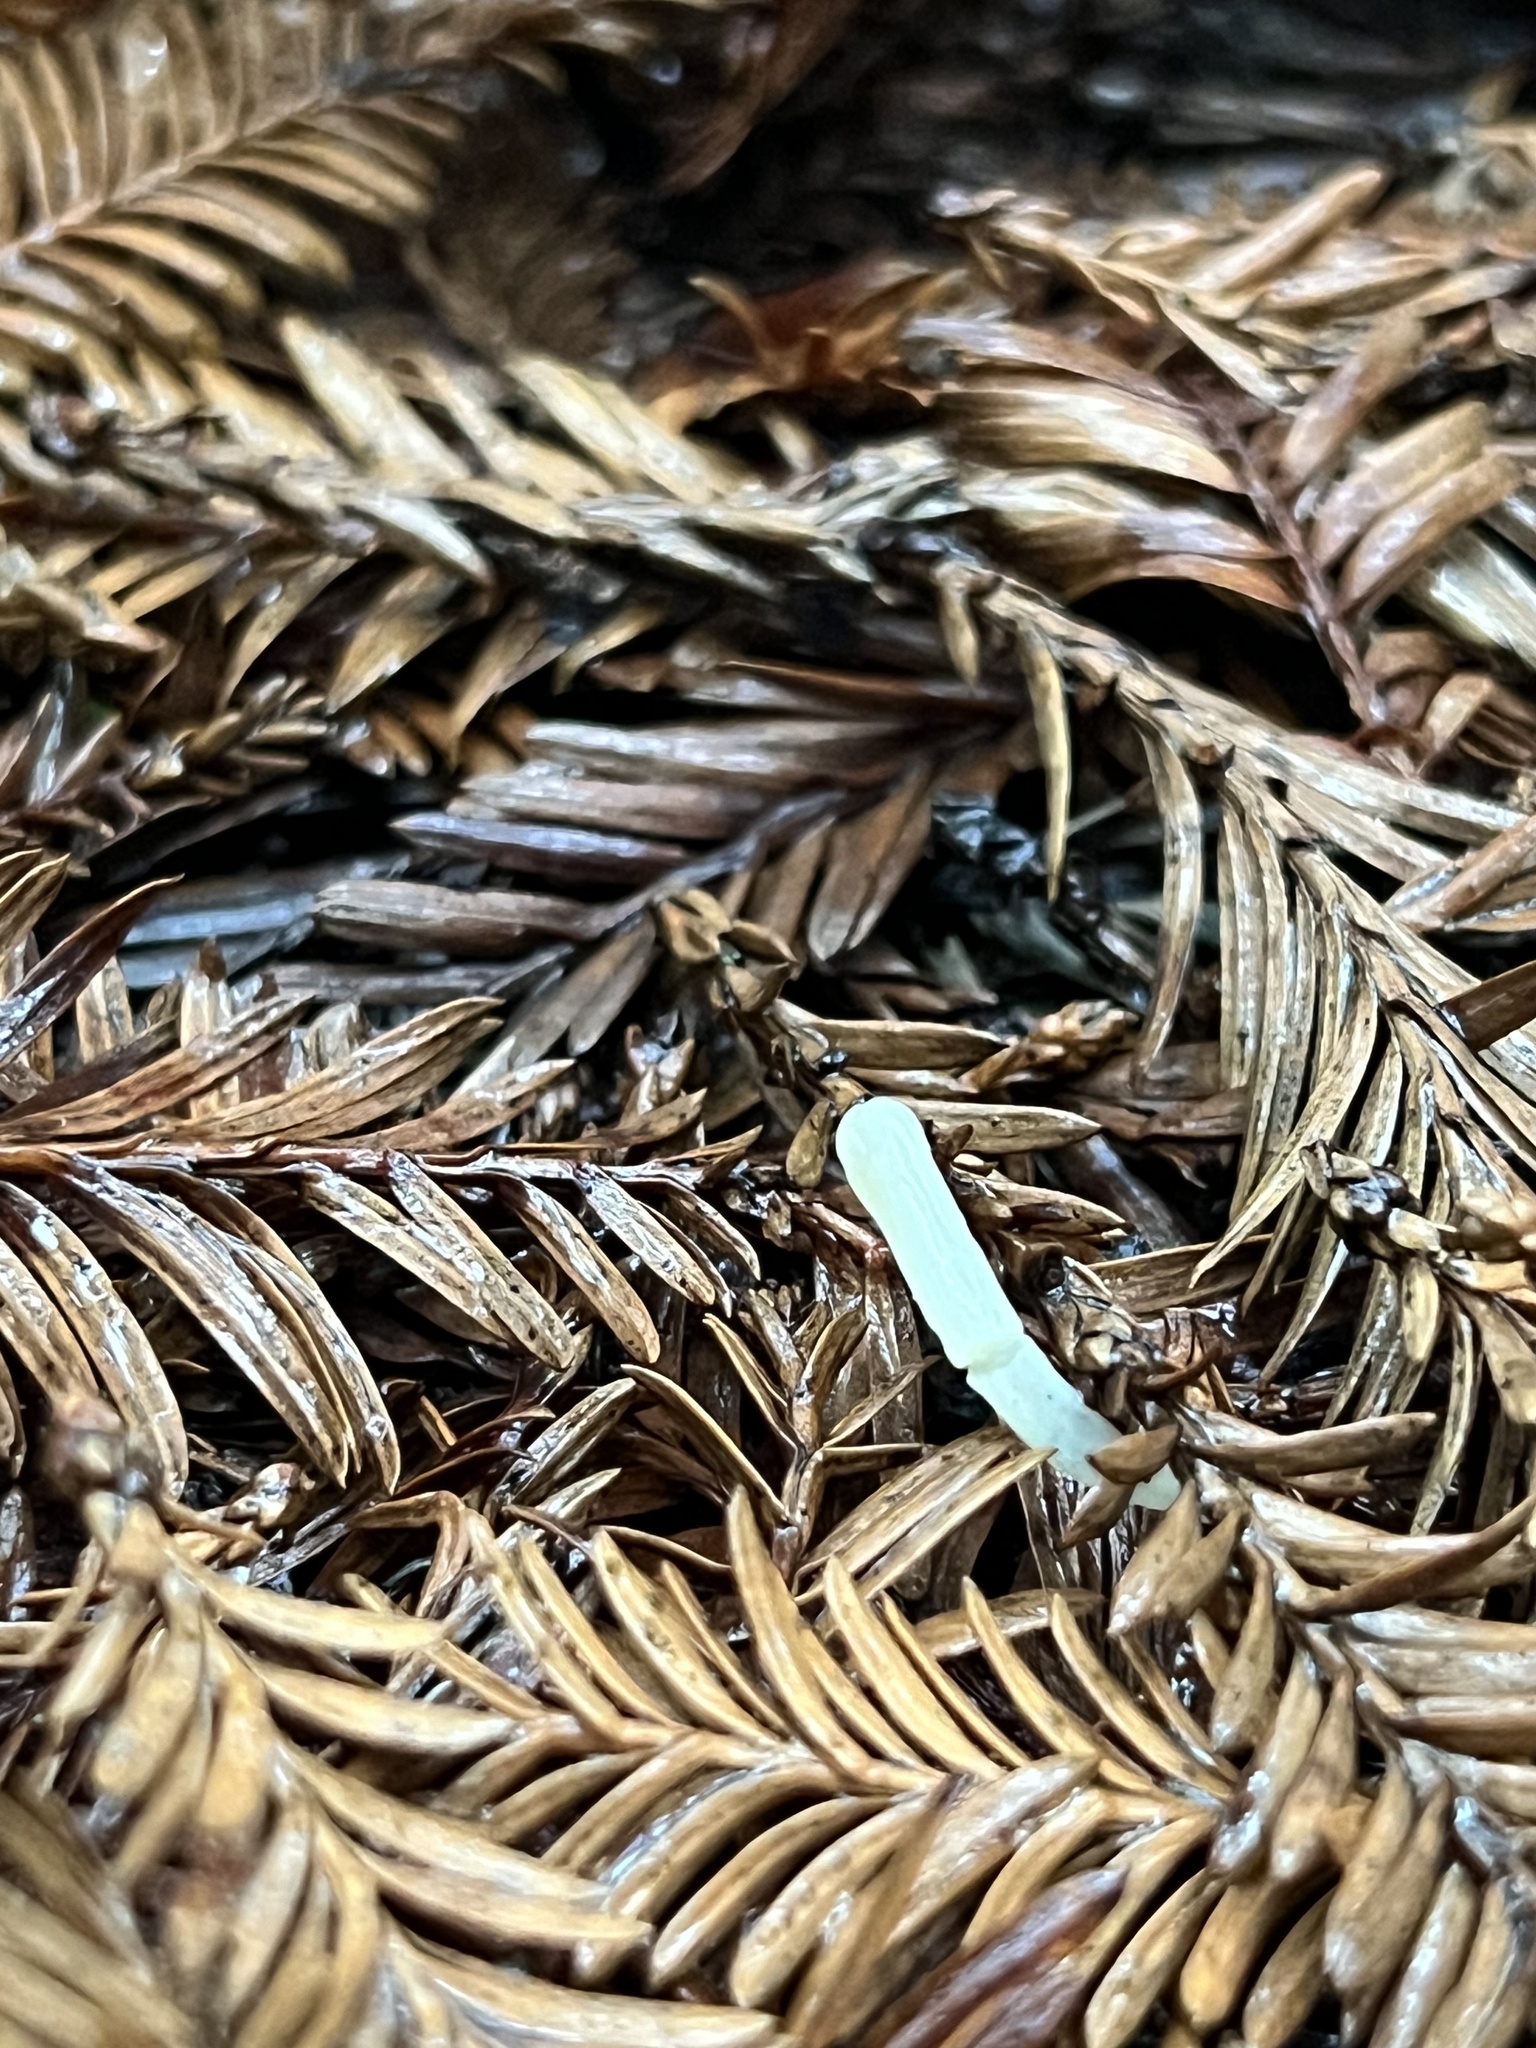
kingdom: Fungi
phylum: Basidiomycota
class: Agaricomycetes
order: Agaricales
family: Clavariaceae
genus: Clavaria
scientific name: Clavaria falcata
